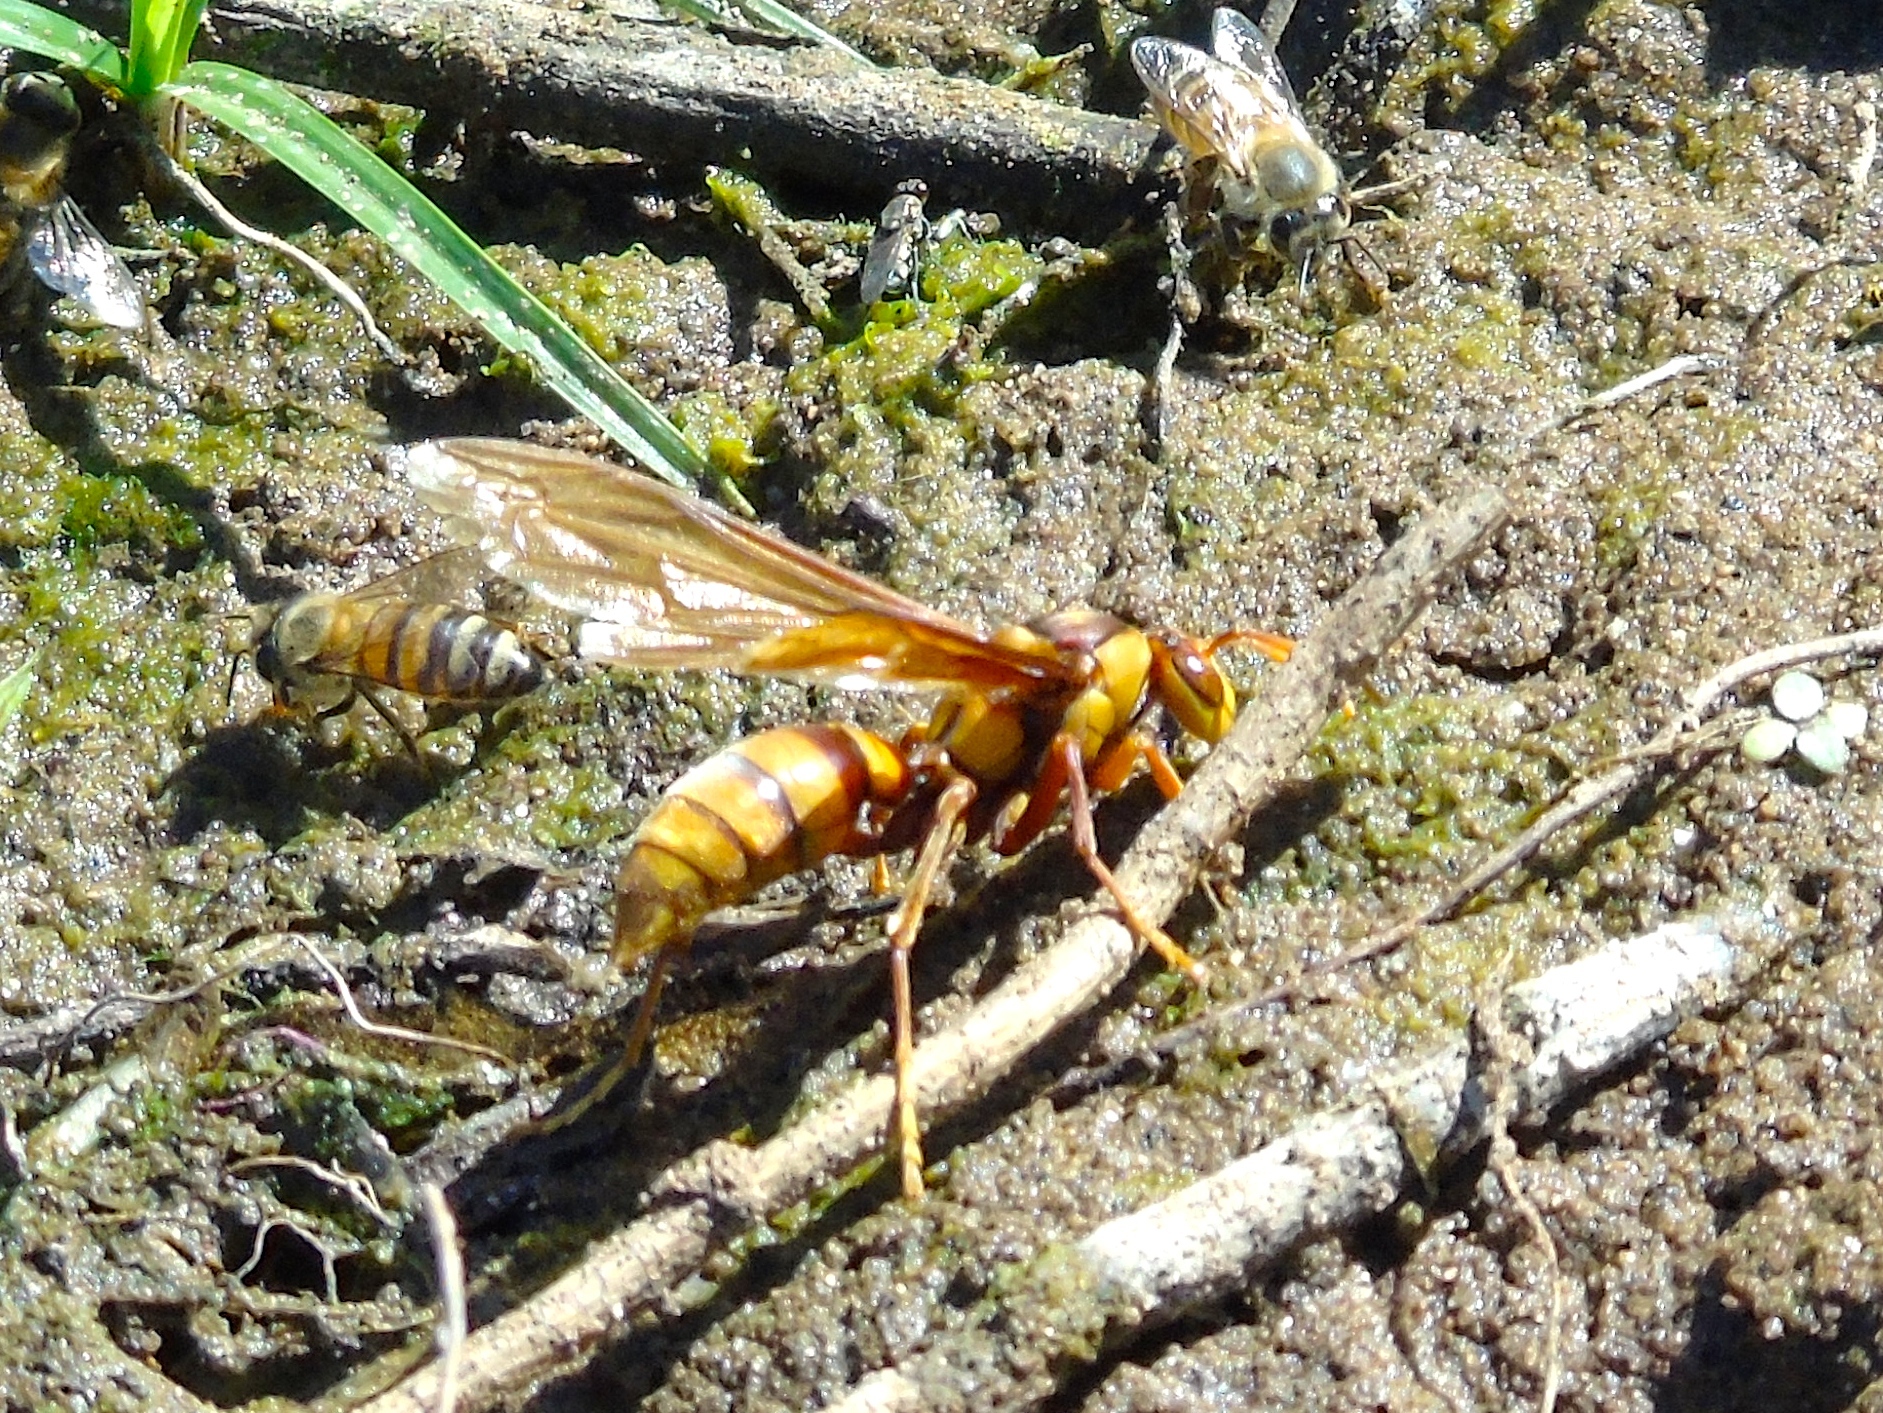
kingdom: Animalia
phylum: Arthropoda
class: Insecta
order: Hymenoptera
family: Eumenidae
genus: Polistes
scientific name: Polistes carnifex
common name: Paper wasp
